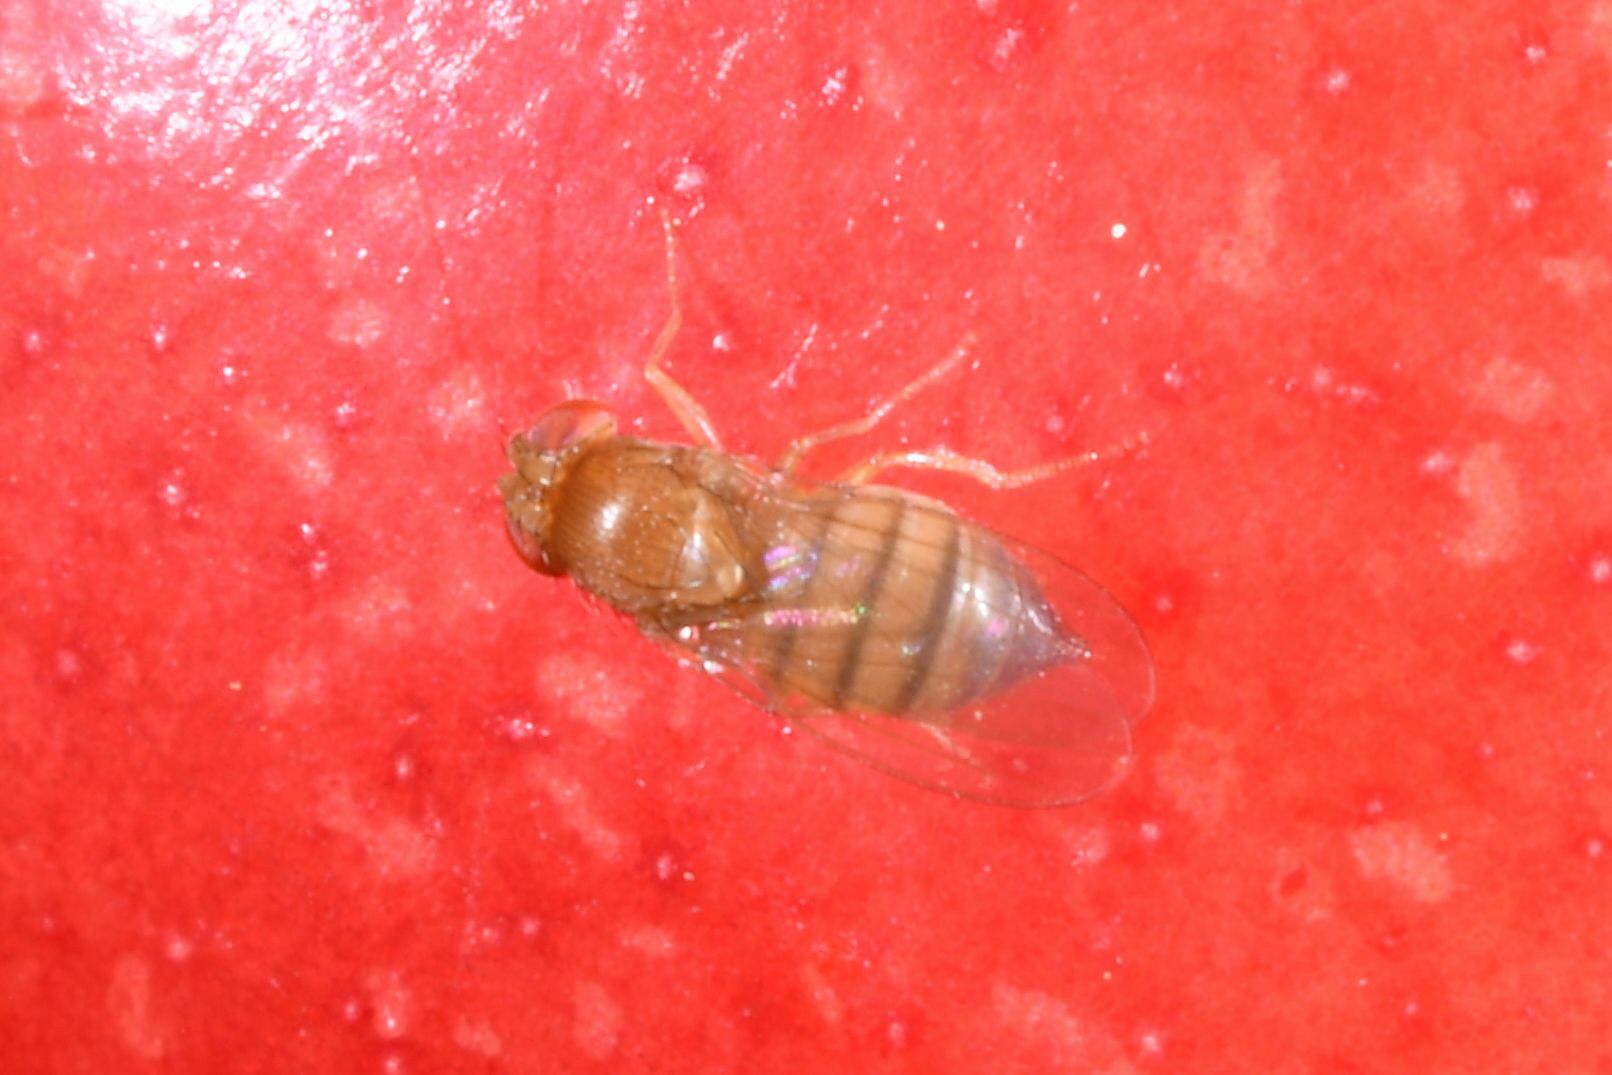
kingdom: Animalia
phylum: Arthropoda
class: Insecta
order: Diptera
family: Drosophilidae
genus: Drosophila
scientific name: Drosophila suzukii
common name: Spotted-wing drosophila
